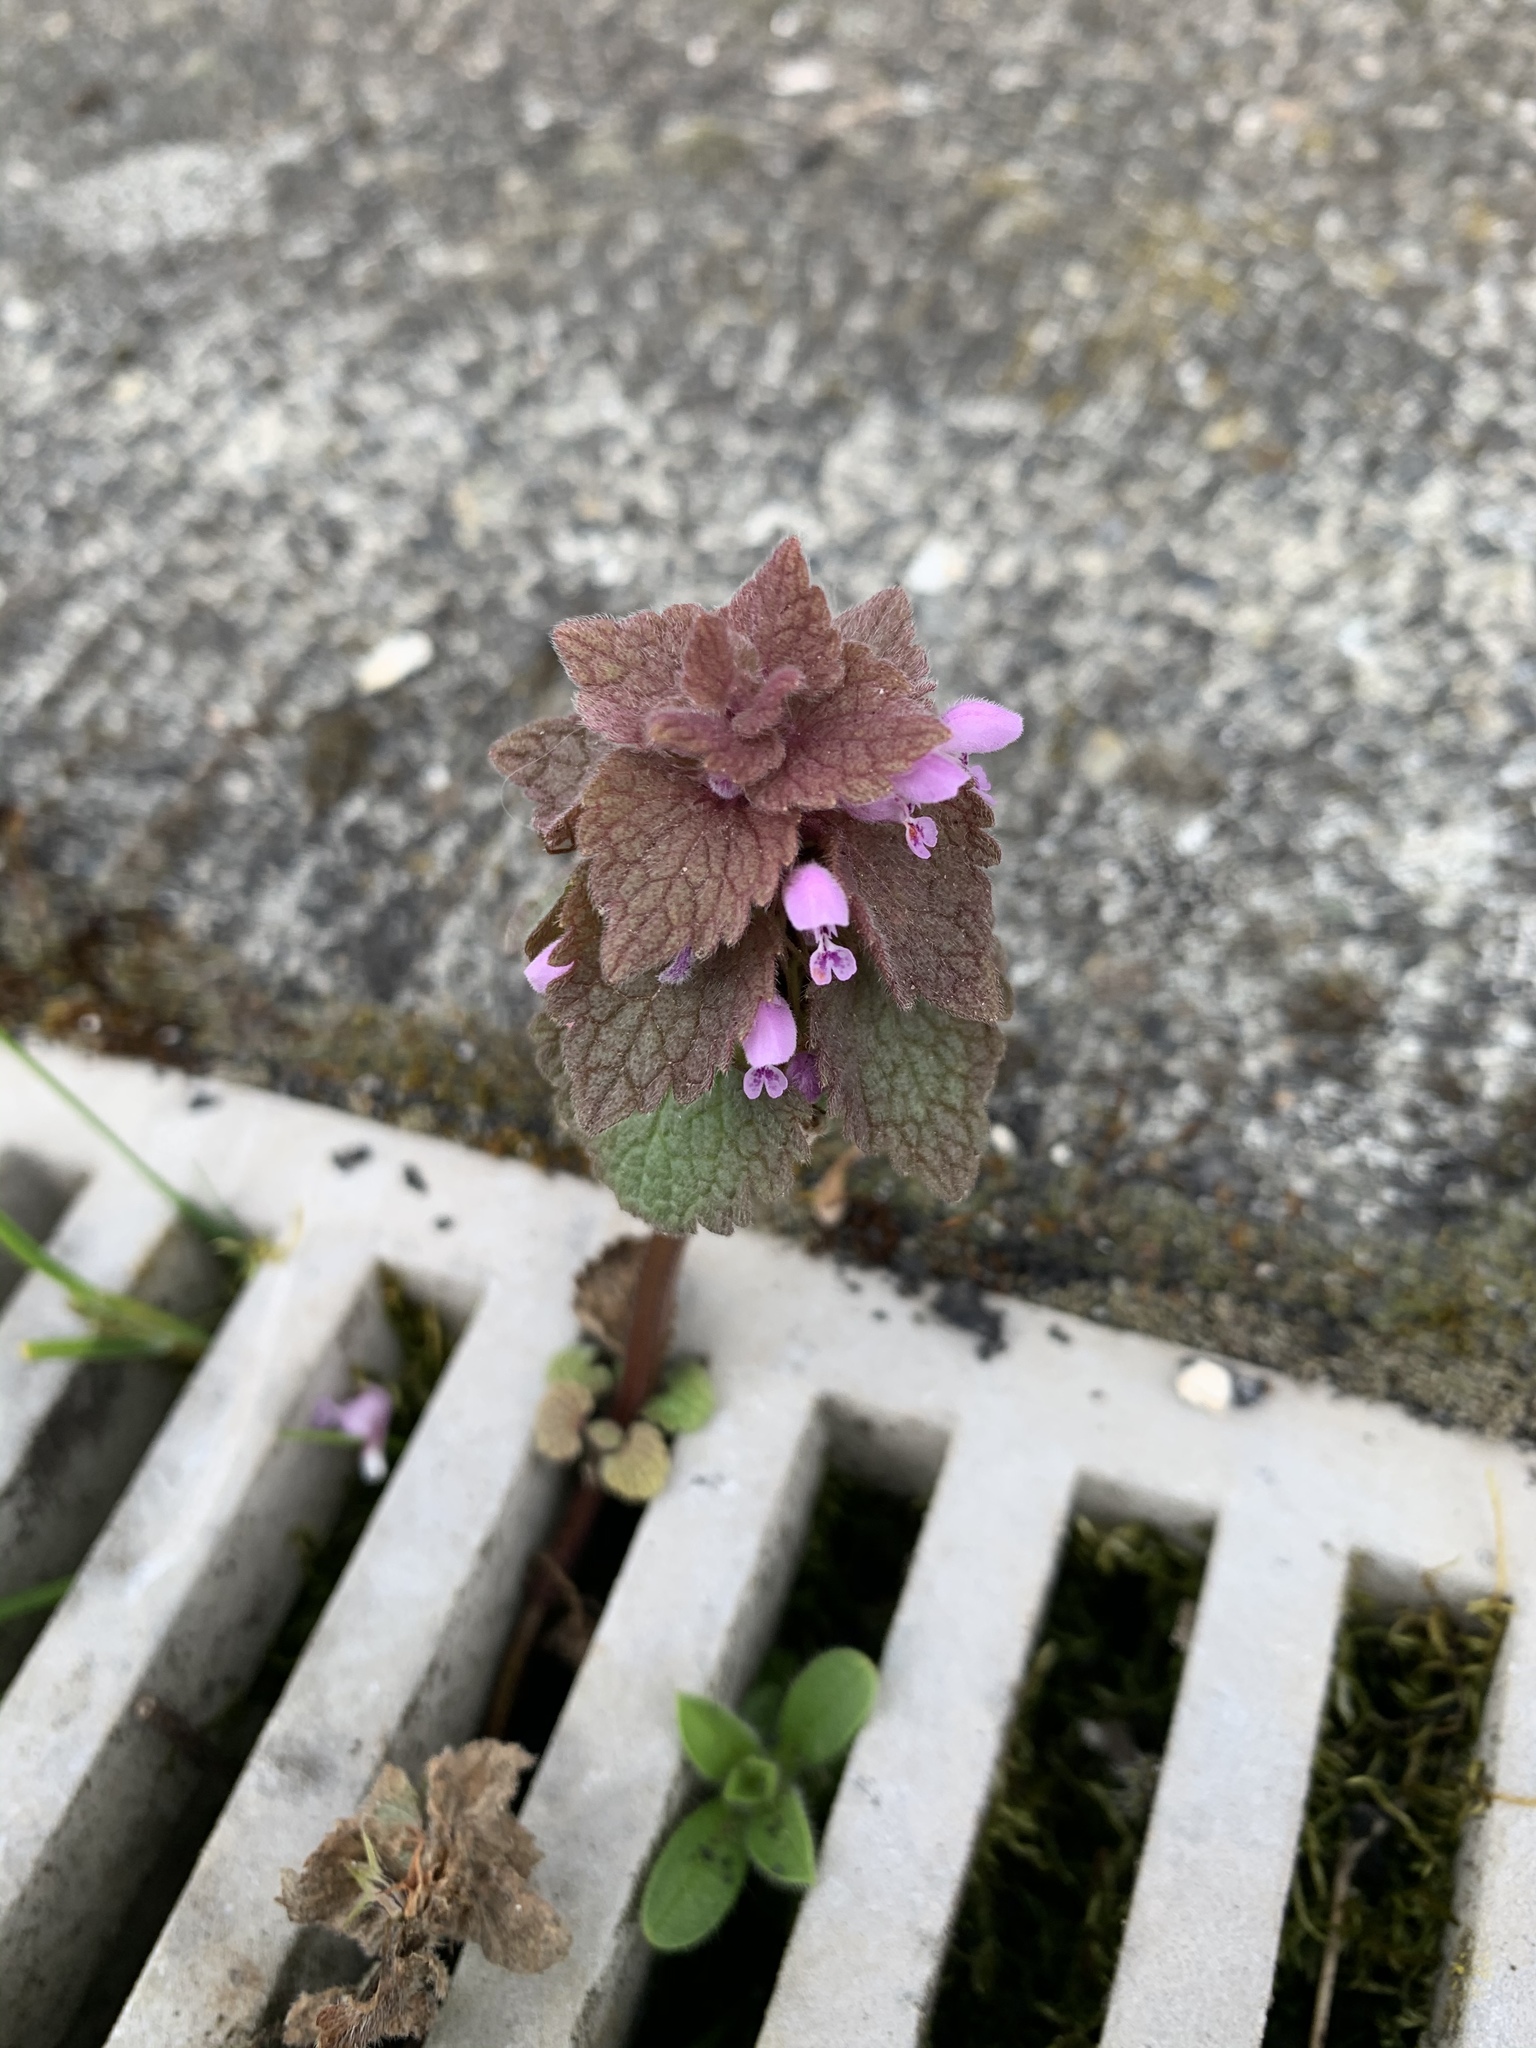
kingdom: Plantae
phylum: Tracheophyta
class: Magnoliopsida
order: Lamiales
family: Lamiaceae
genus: Lamium
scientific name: Lamium purpureum
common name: Red dead-nettle
